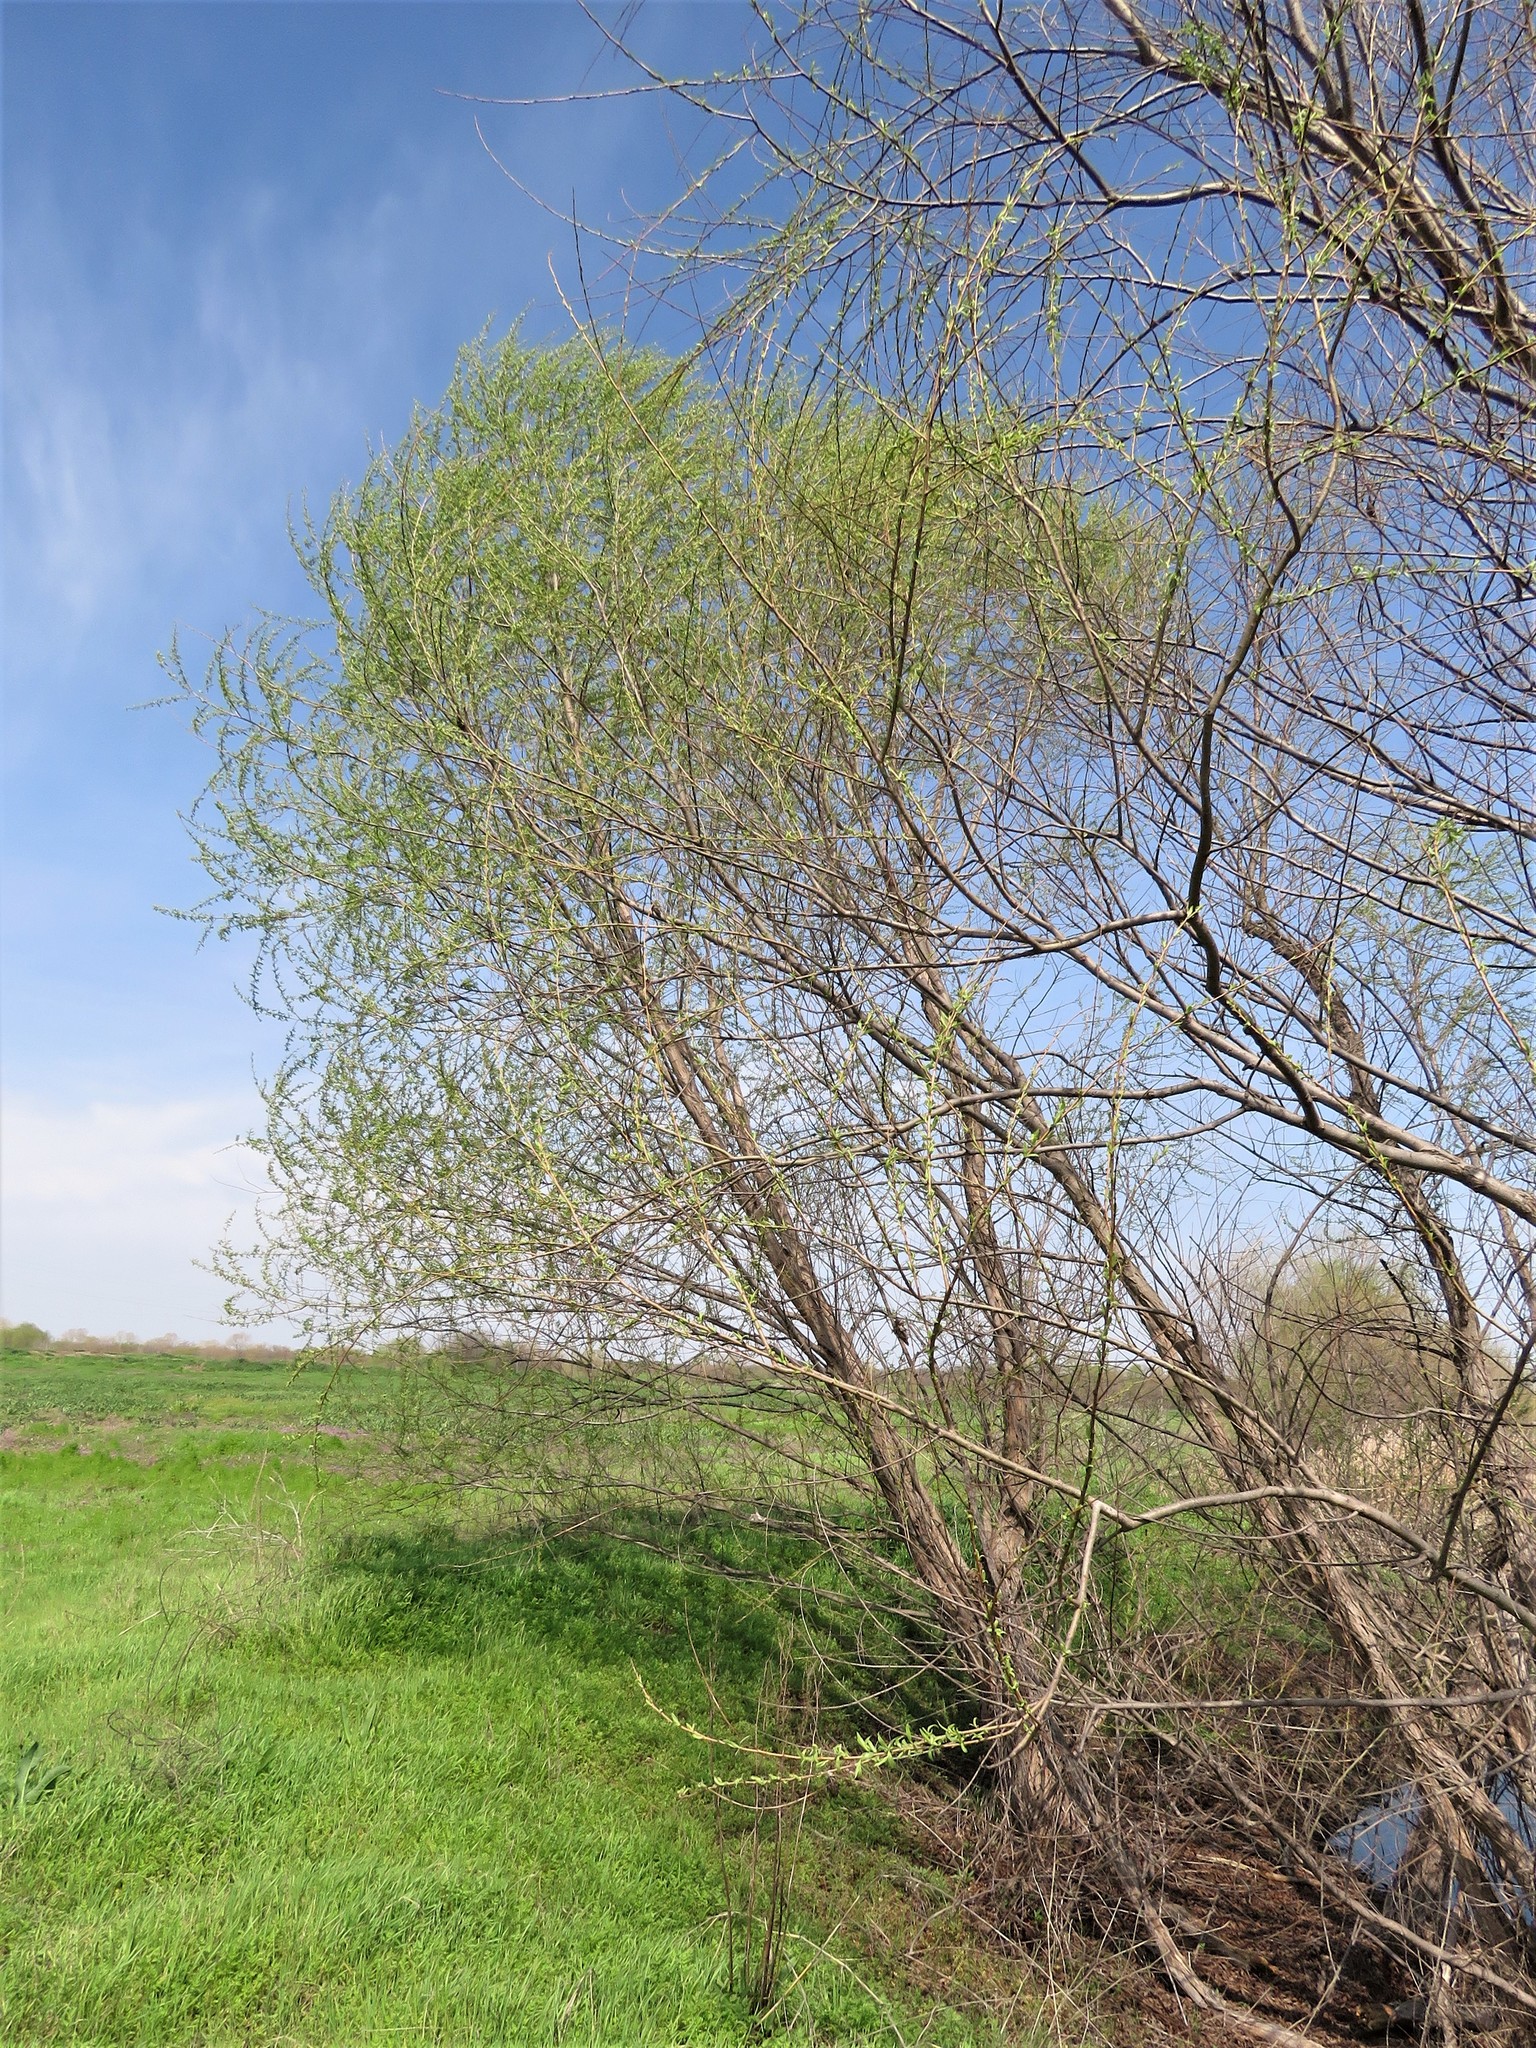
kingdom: Plantae
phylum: Tracheophyta
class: Magnoliopsida
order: Malpighiales
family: Salicaceae
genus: Salix
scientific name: Salix nigra
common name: Black willow
